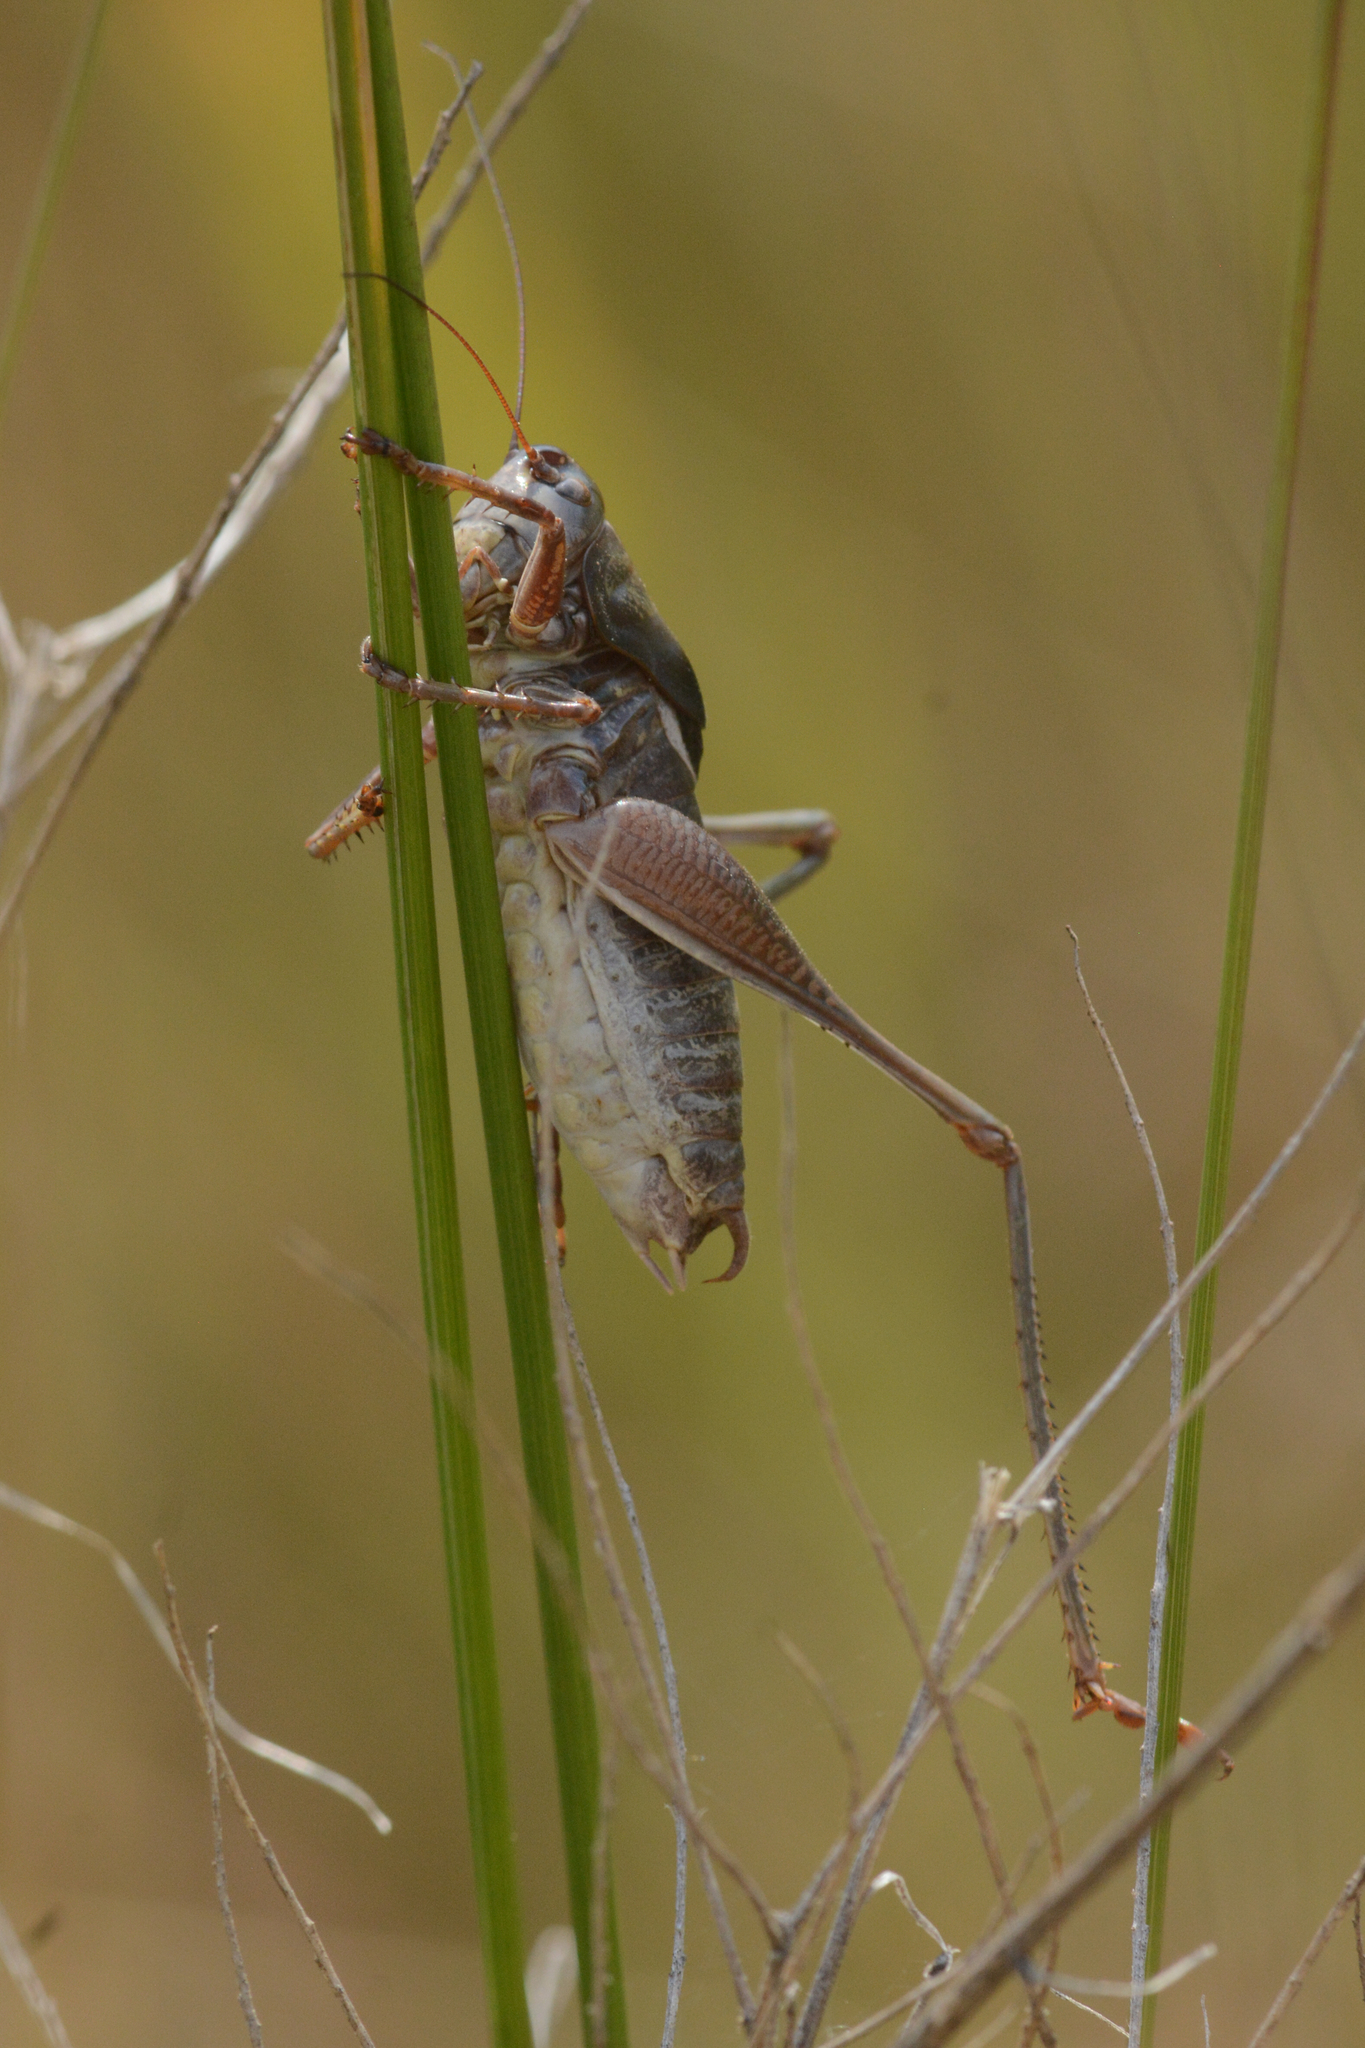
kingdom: Animalia
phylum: Arthropoda
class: Insecta
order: Orthoptera
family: Tettigoniidae
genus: Anabrus
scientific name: Anabrus longipes
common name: Long-legged anabrus
